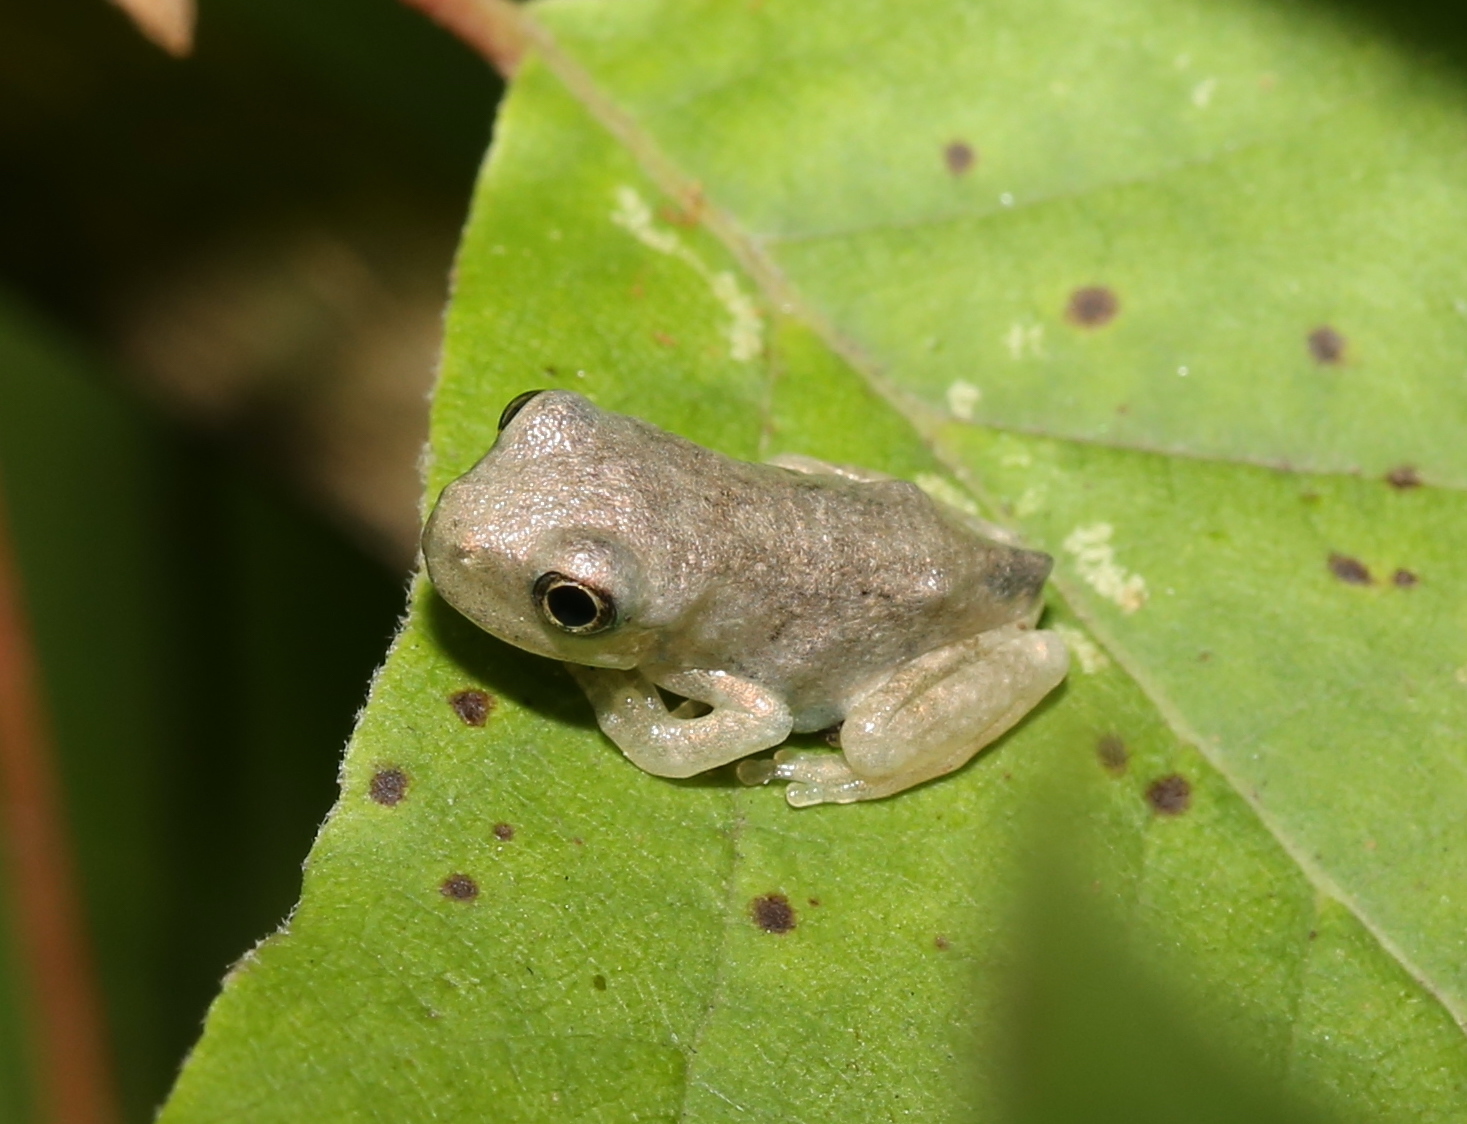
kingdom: Animalia
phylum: Chordata
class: Amphibia
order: Anura
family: Hylidae
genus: Dryophytes
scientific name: Dryophytes chrysoscelis
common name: Cope's gray treefrog
